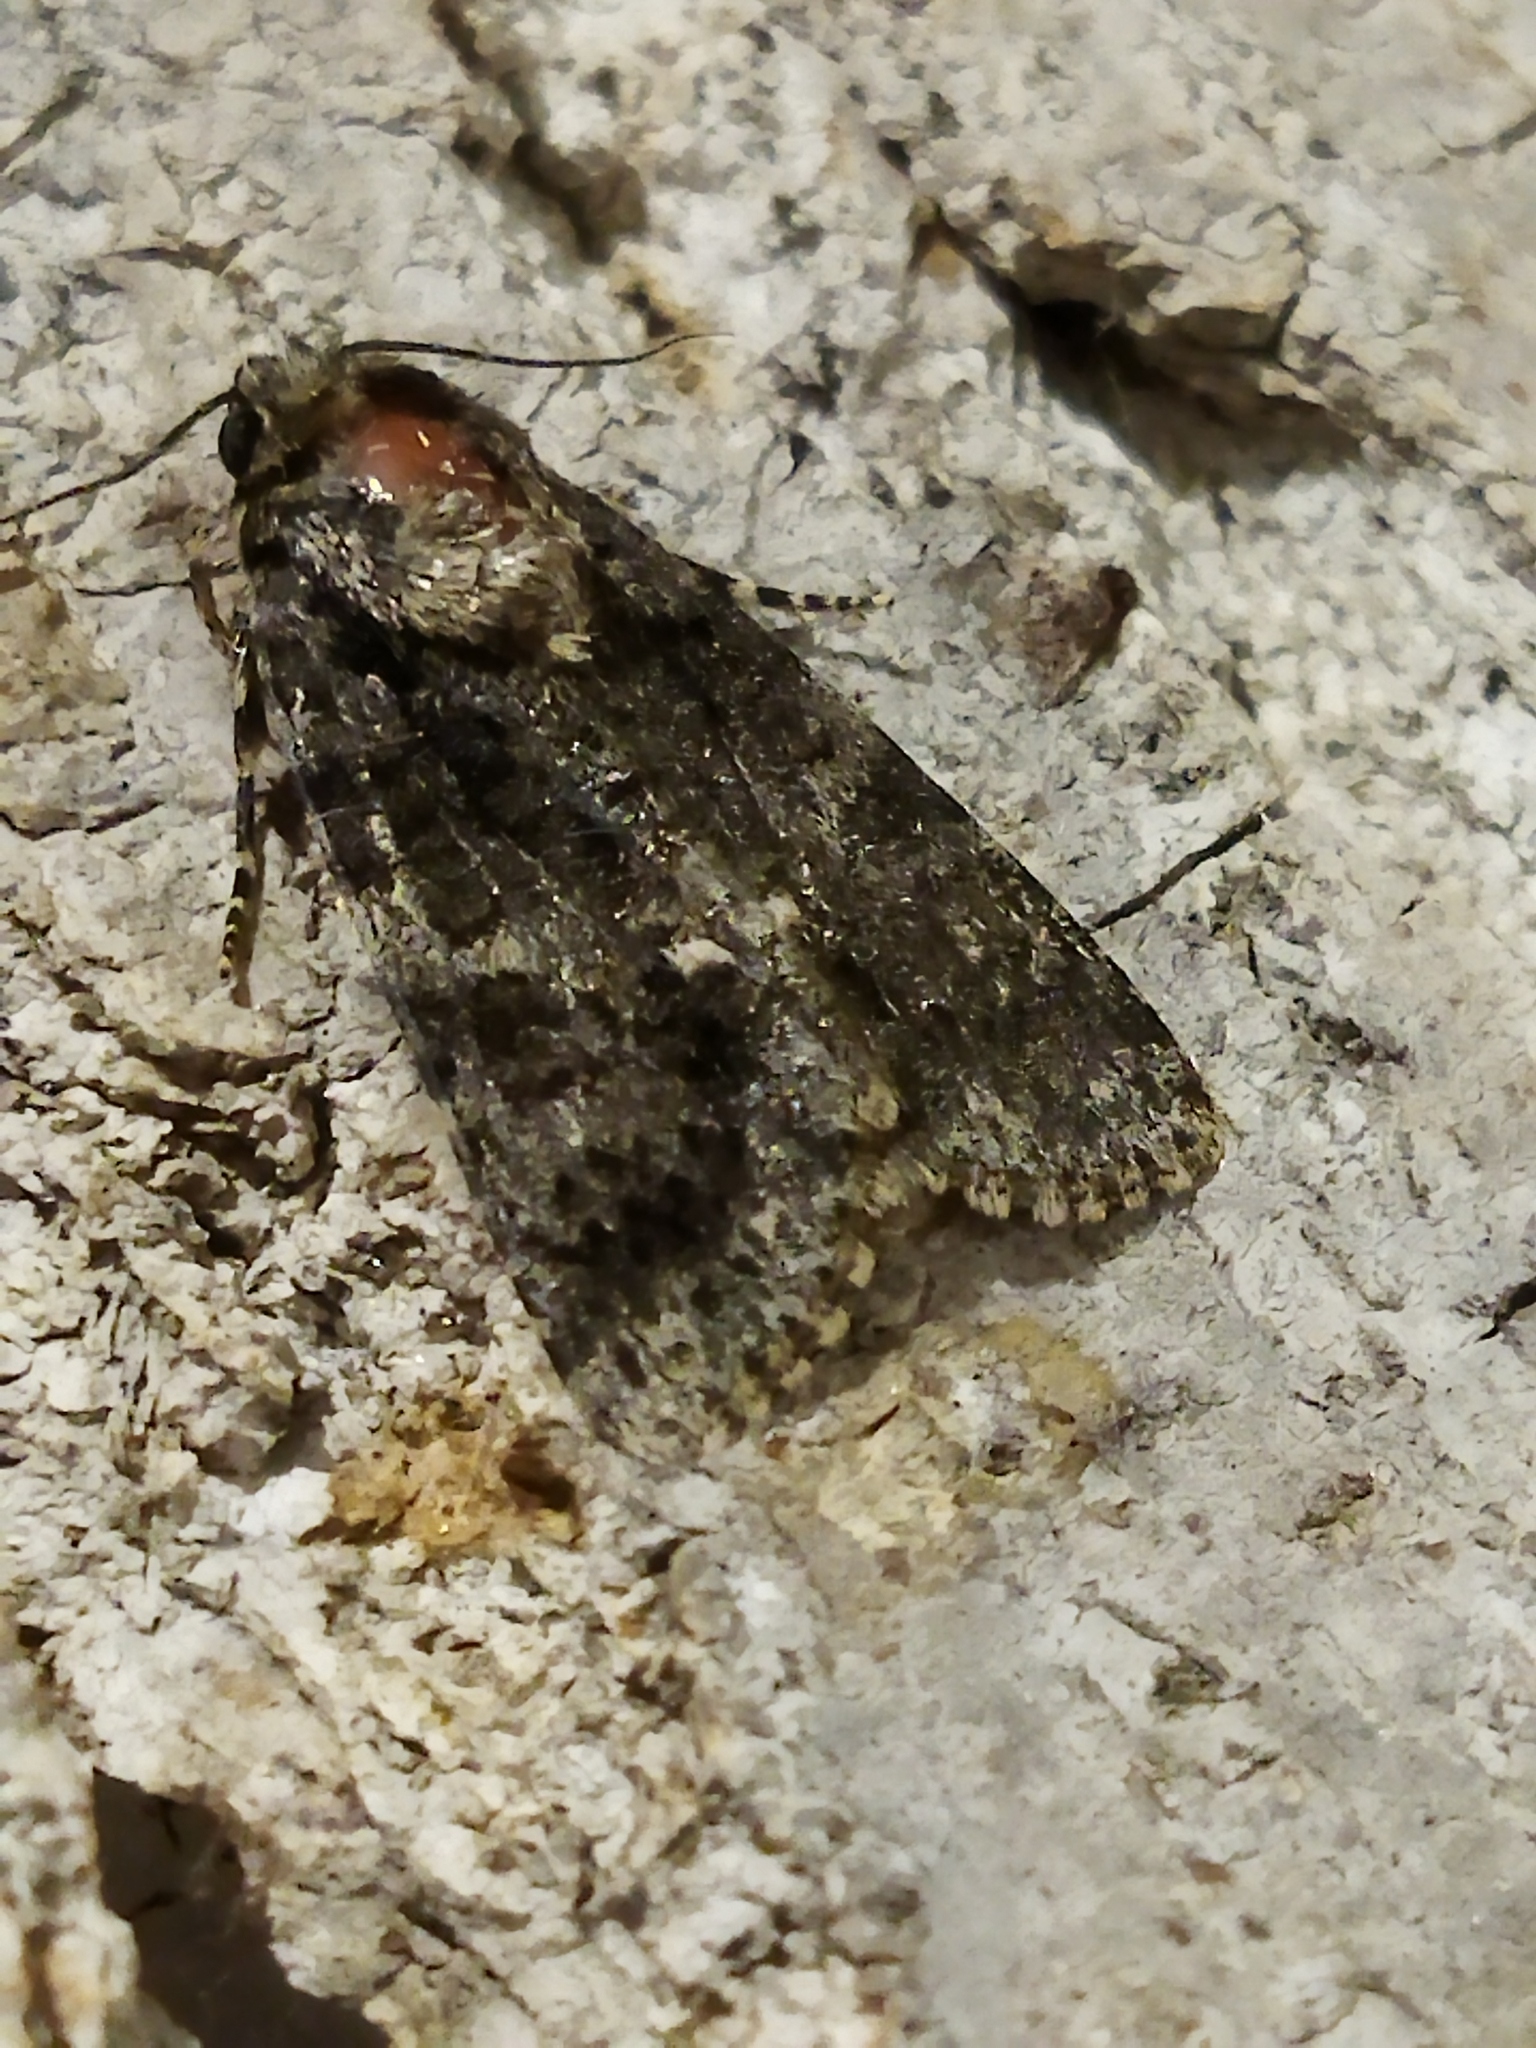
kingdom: Animalia
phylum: Arthropoda
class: Insecta
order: Lepidoptera
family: Noctuidae
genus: Acronicta
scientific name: Acronicta rumicis
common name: Knot grass
